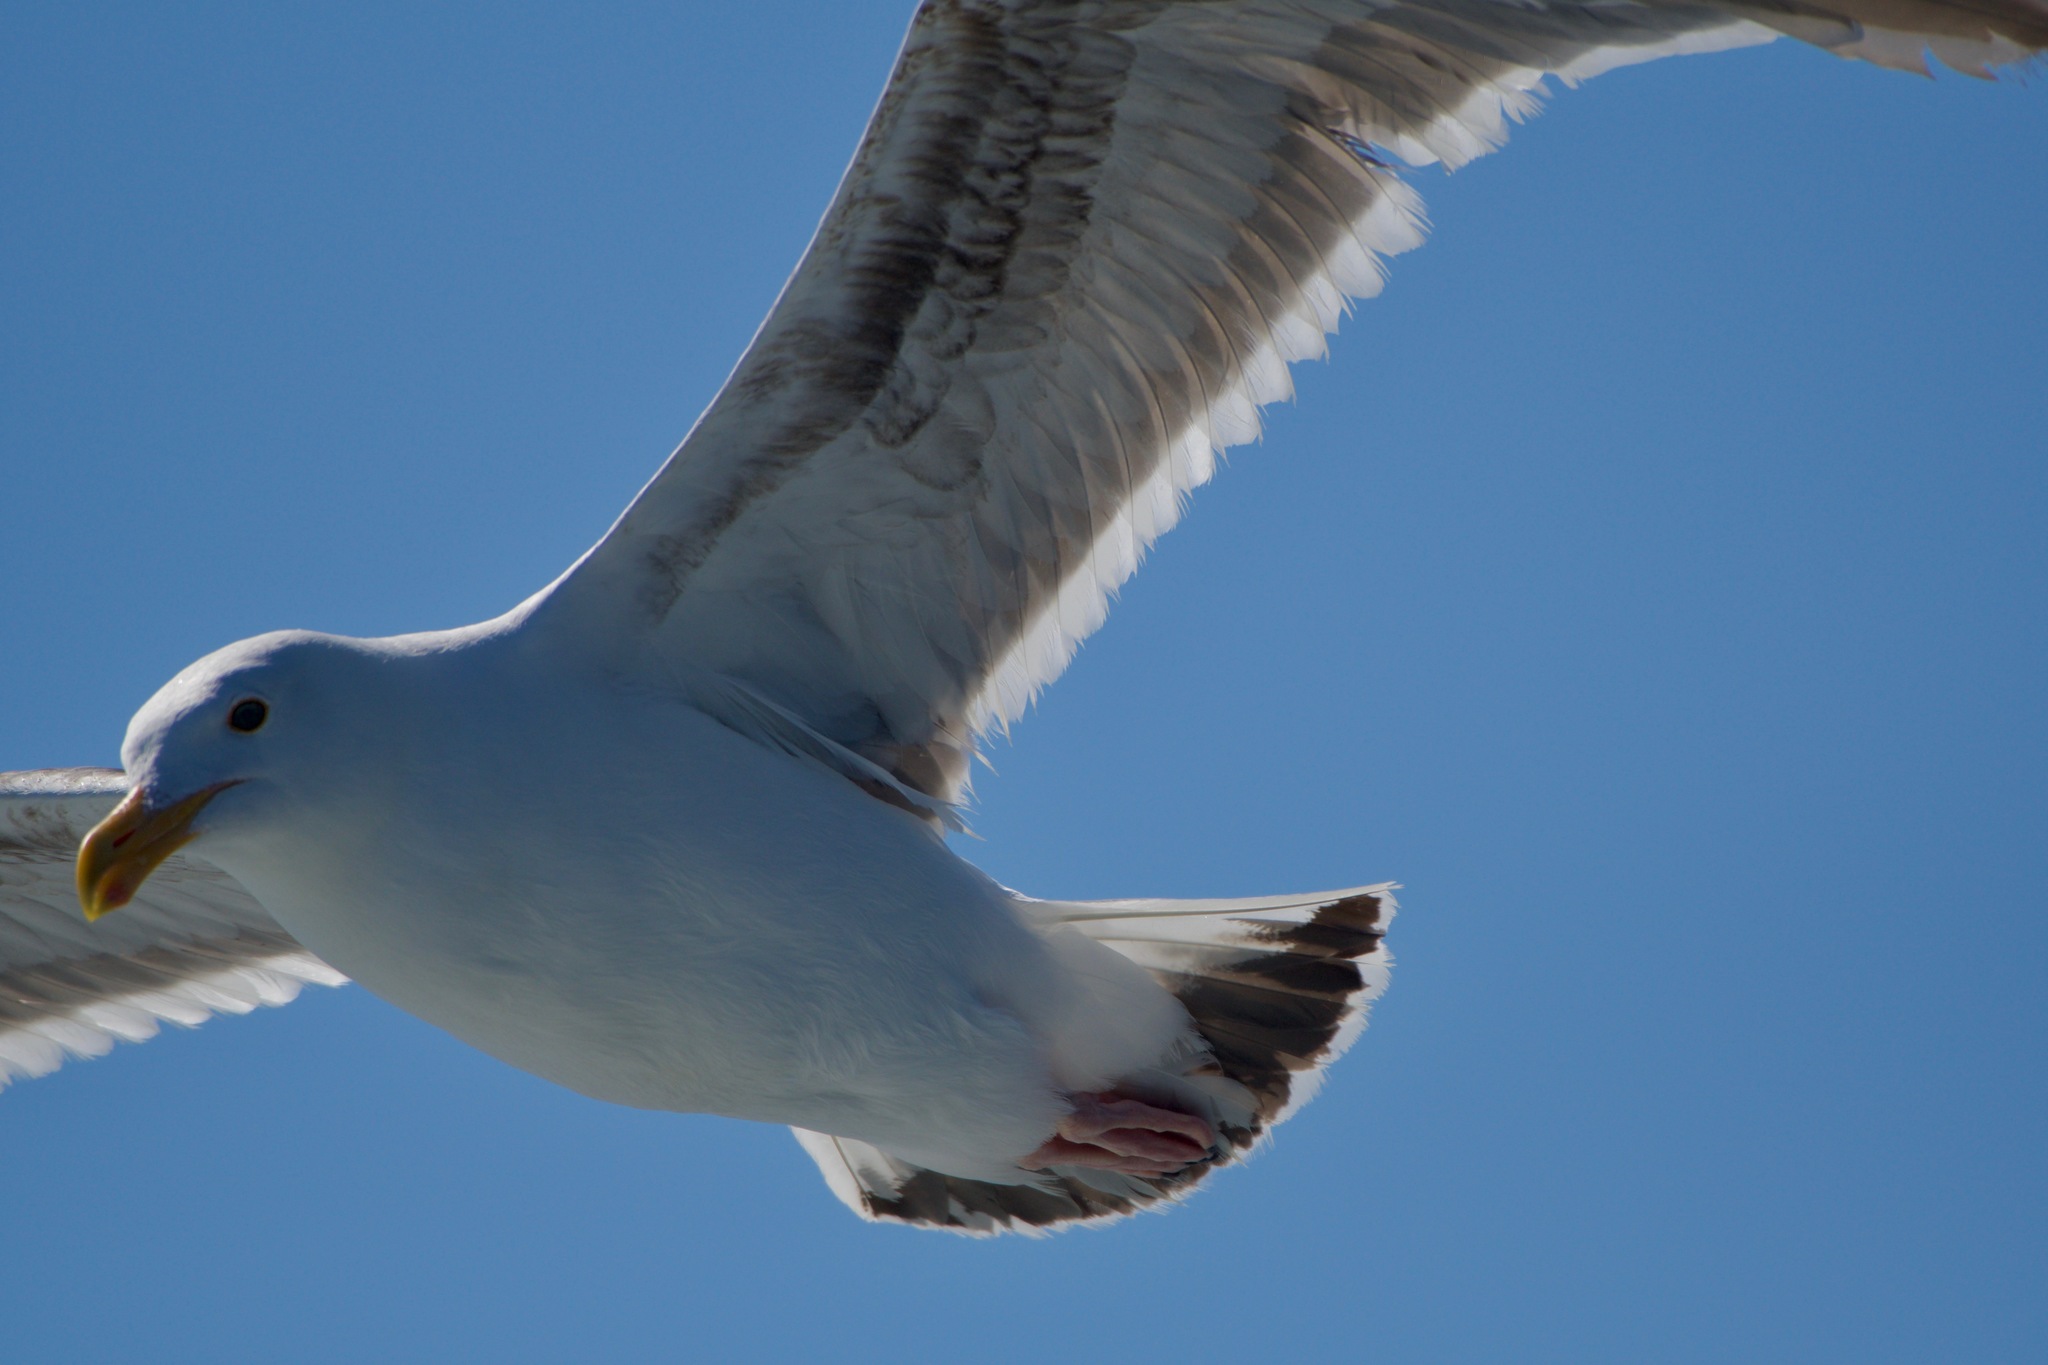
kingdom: Animalia
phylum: Chordata
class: Aves
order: Charadriiformes
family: Laridae
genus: Larus
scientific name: Larus occidentalis
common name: Western gull
